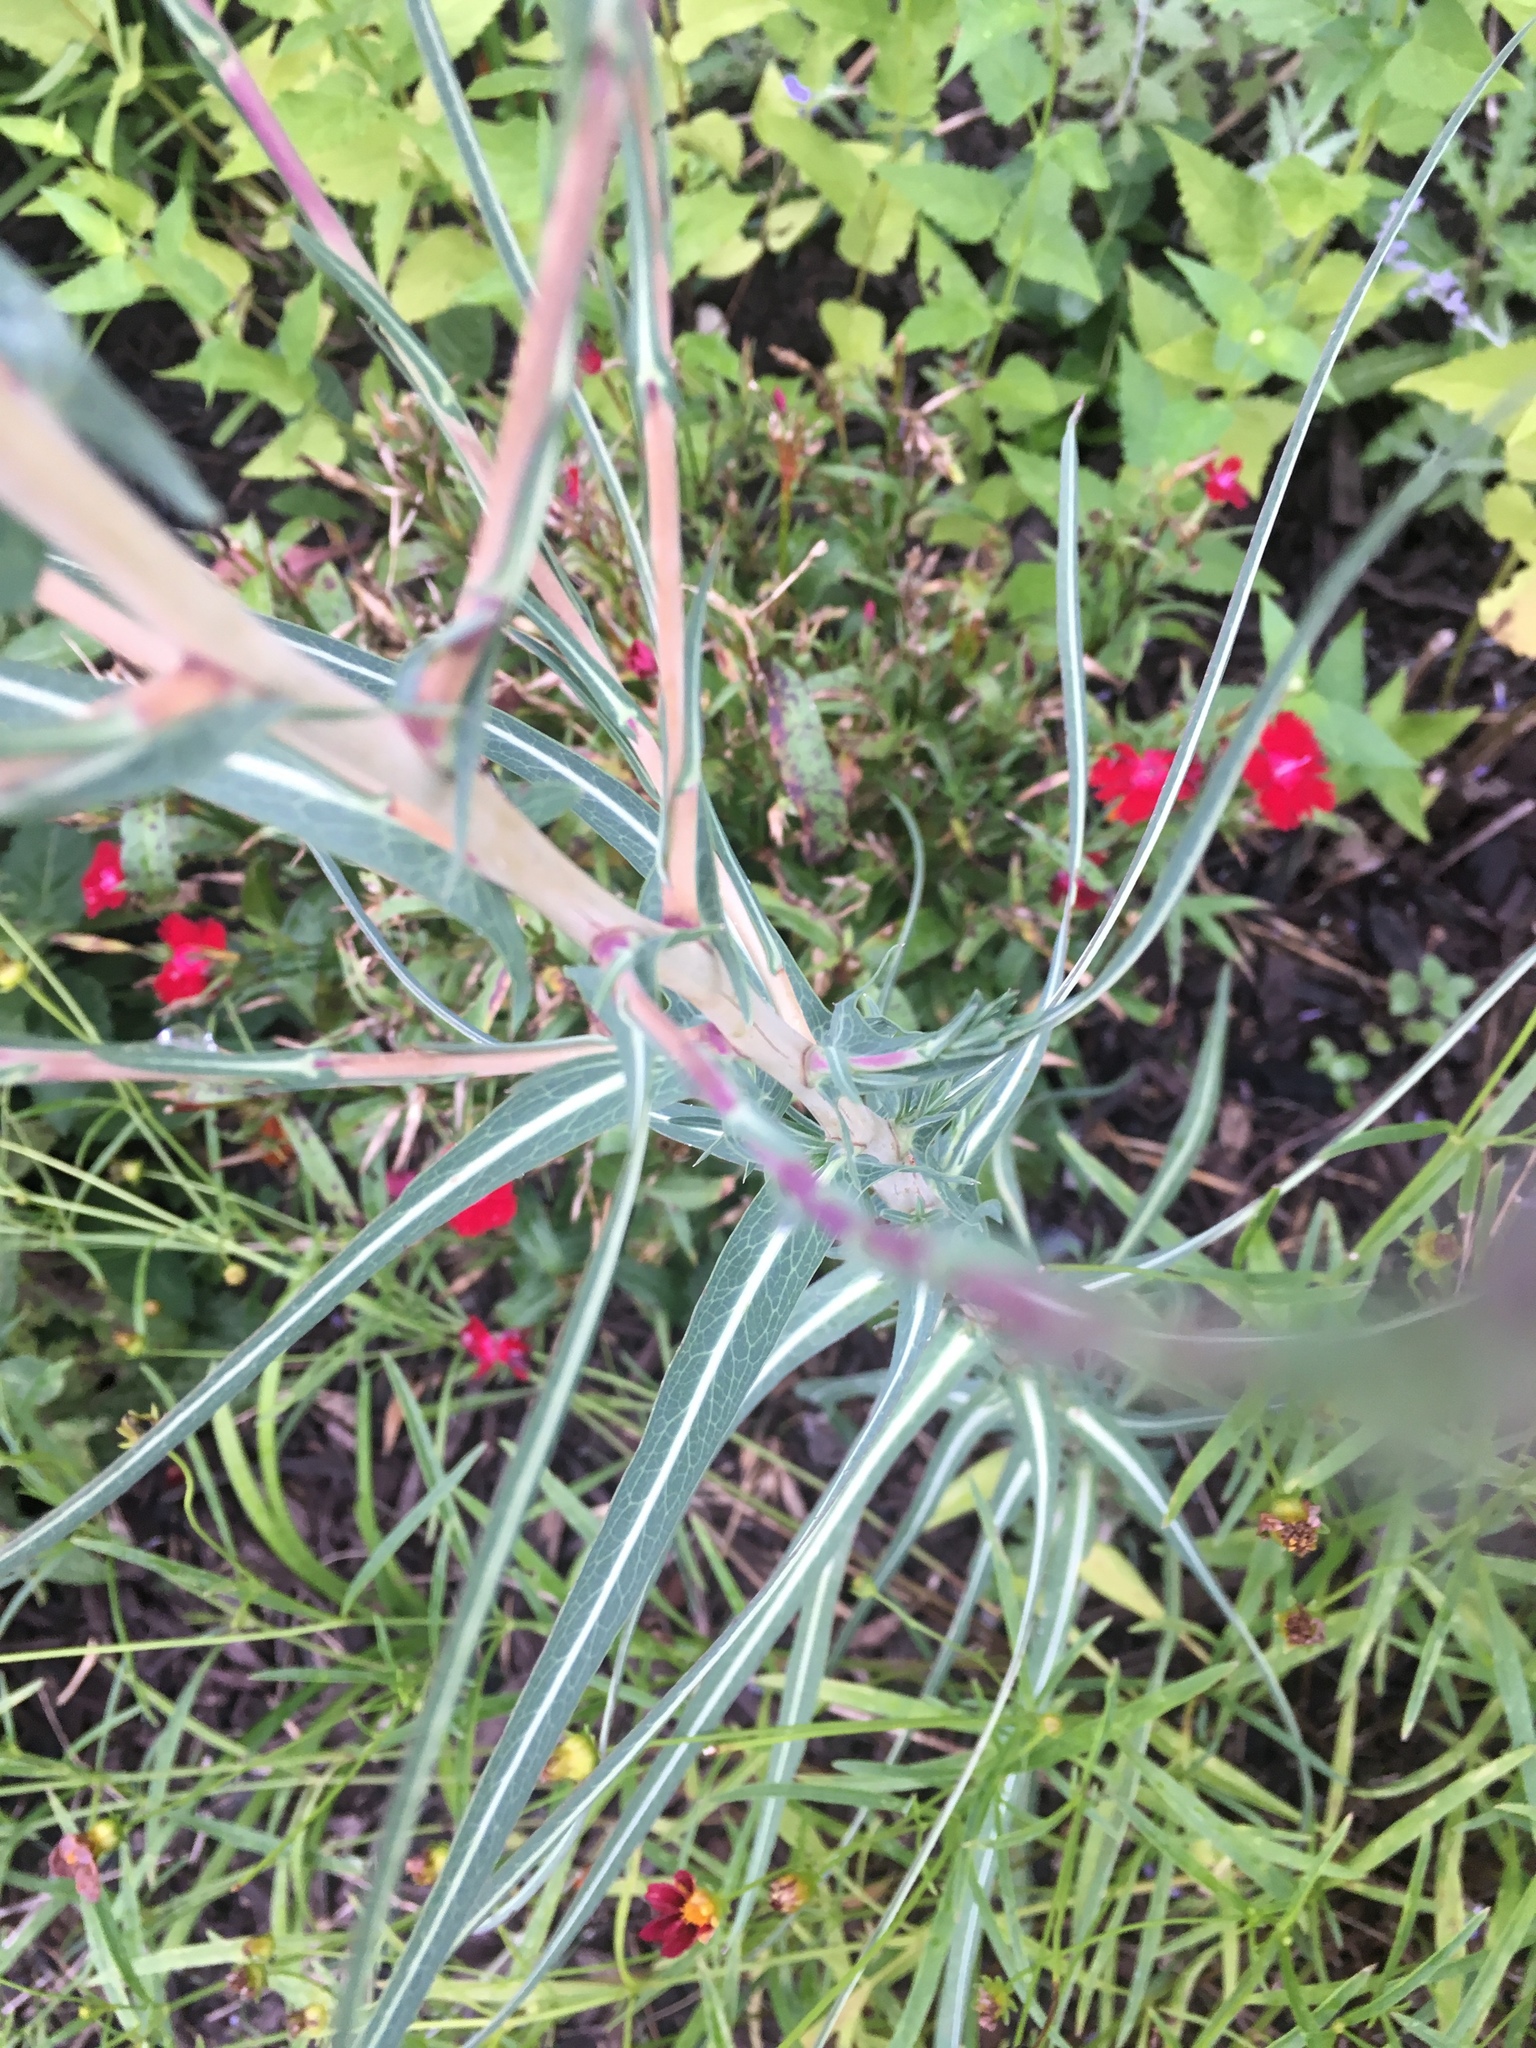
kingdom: Plantae
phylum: Tracheophyta
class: Magnoliopsida
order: Asterales
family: Asteraceae
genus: Lactuca
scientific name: Lactuca saligna
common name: Wild lettuce
